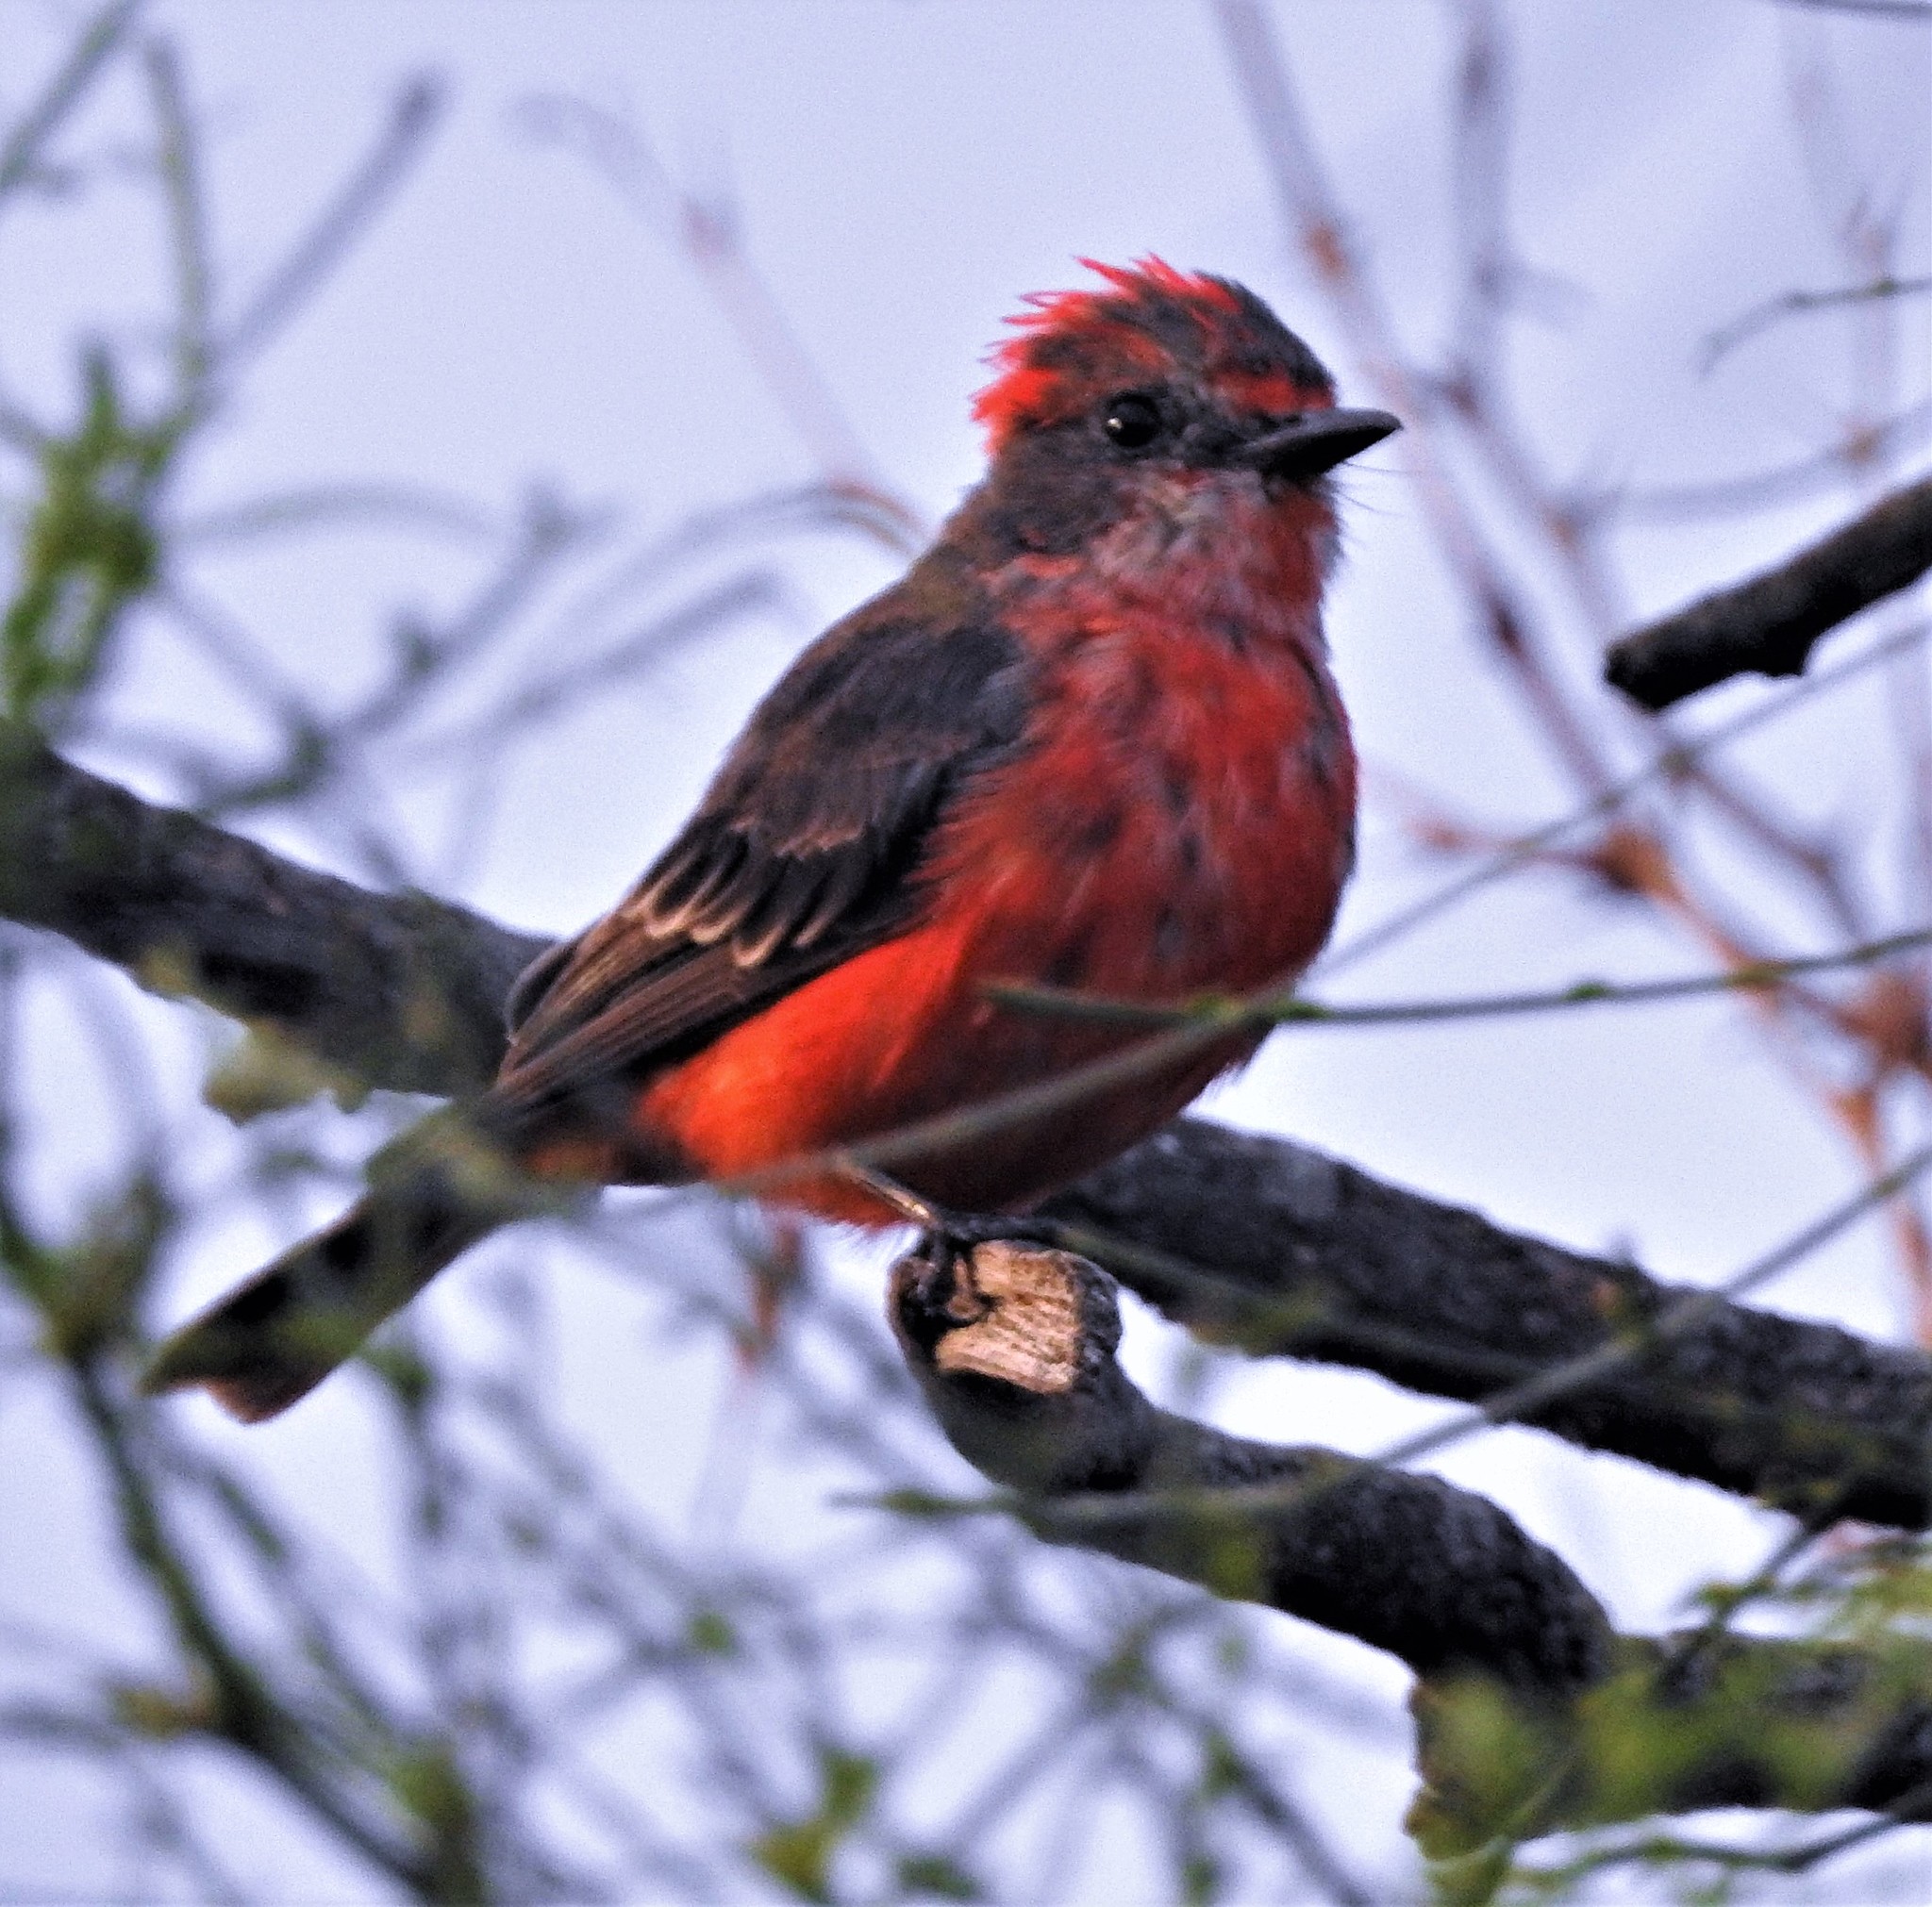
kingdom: Animalia
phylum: Chordata
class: Aves
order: Passeriformes
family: Tyrannidae
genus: Pyrocephalus
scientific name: Pyrocephalus rubinus
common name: Vermilion flycatcher
